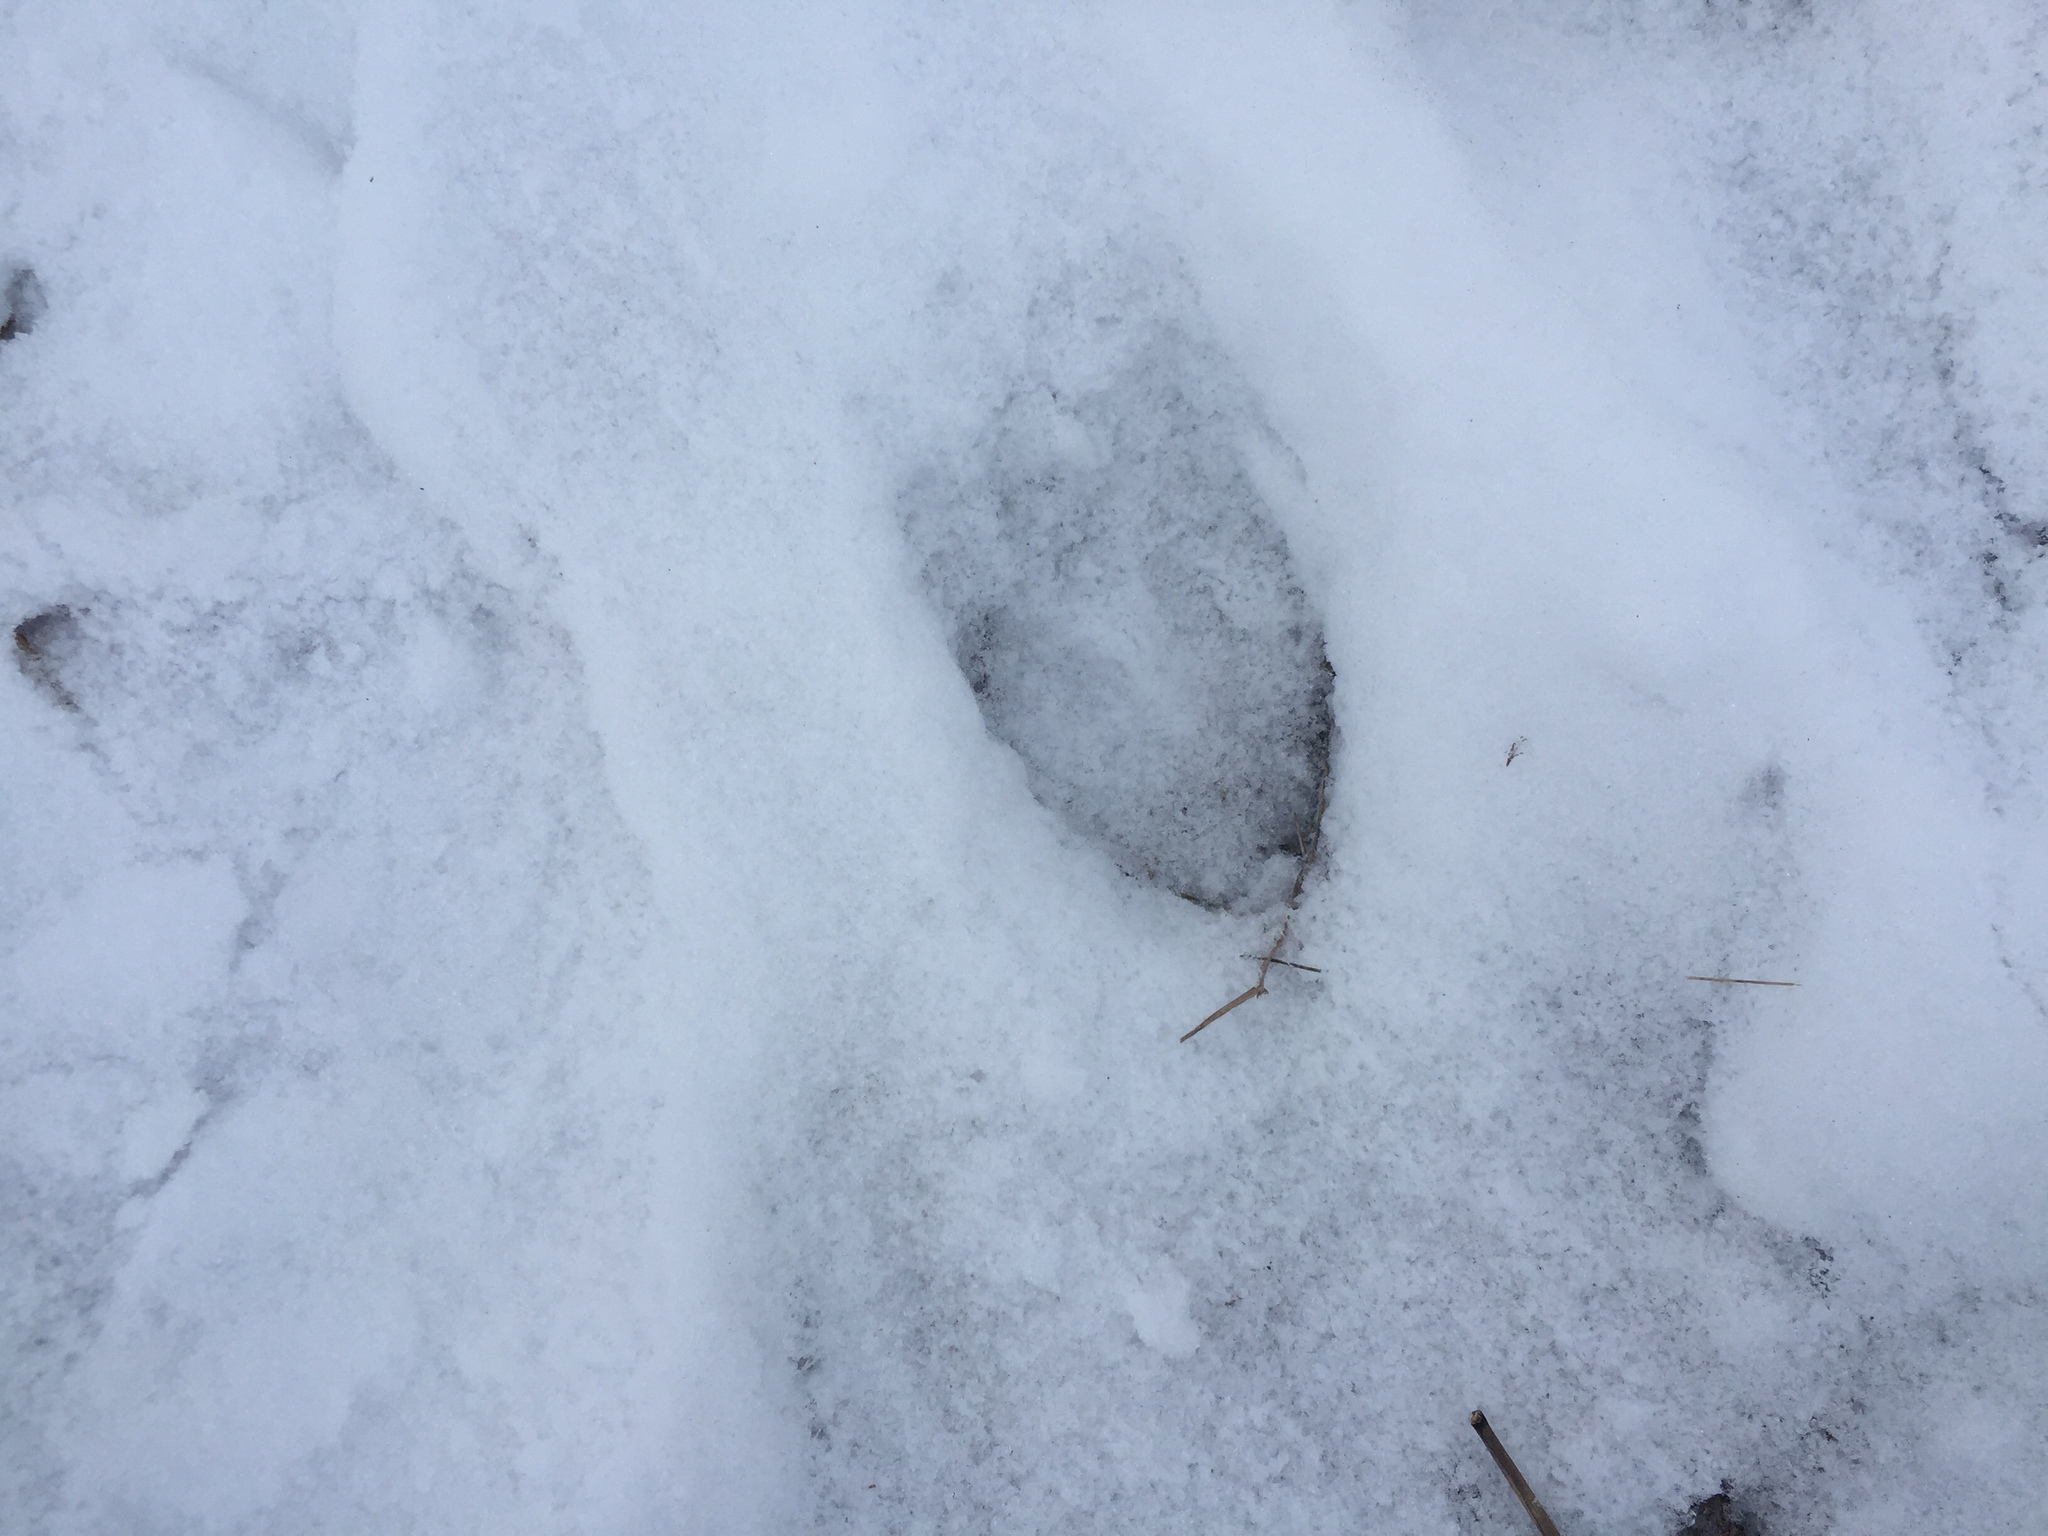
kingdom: Animalia
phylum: Chordata
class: Mammalia
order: Artiodactyla
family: Cervidae
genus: Odocoileus
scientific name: Odocoileus virginianus
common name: White-tailed deer
